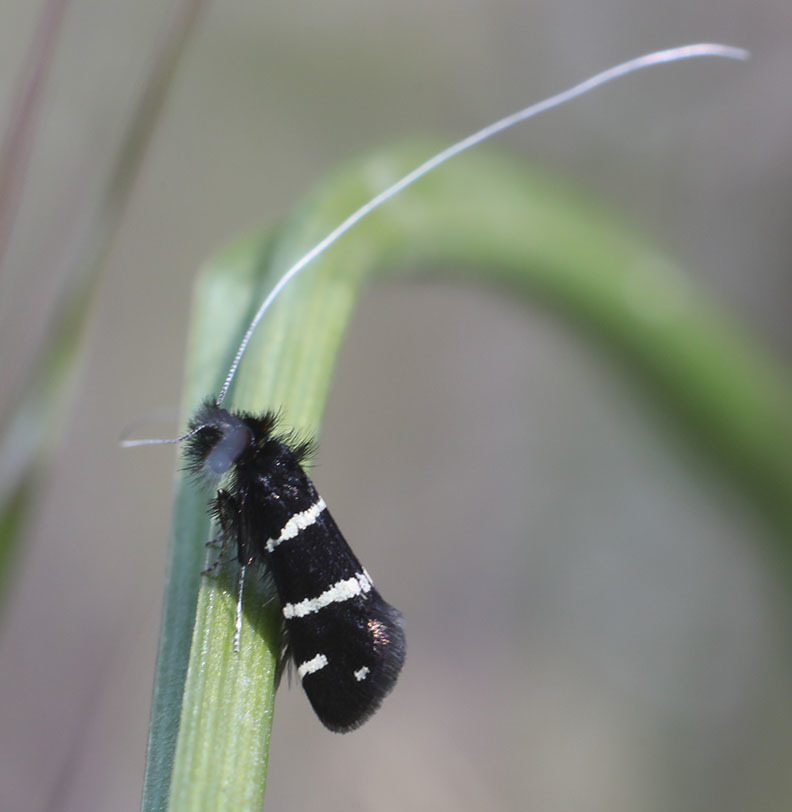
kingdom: Animalia
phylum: Arthropoda
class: Insecta
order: Lepidoptera
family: Adelidae
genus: Adela
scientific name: Adela trigrapha
